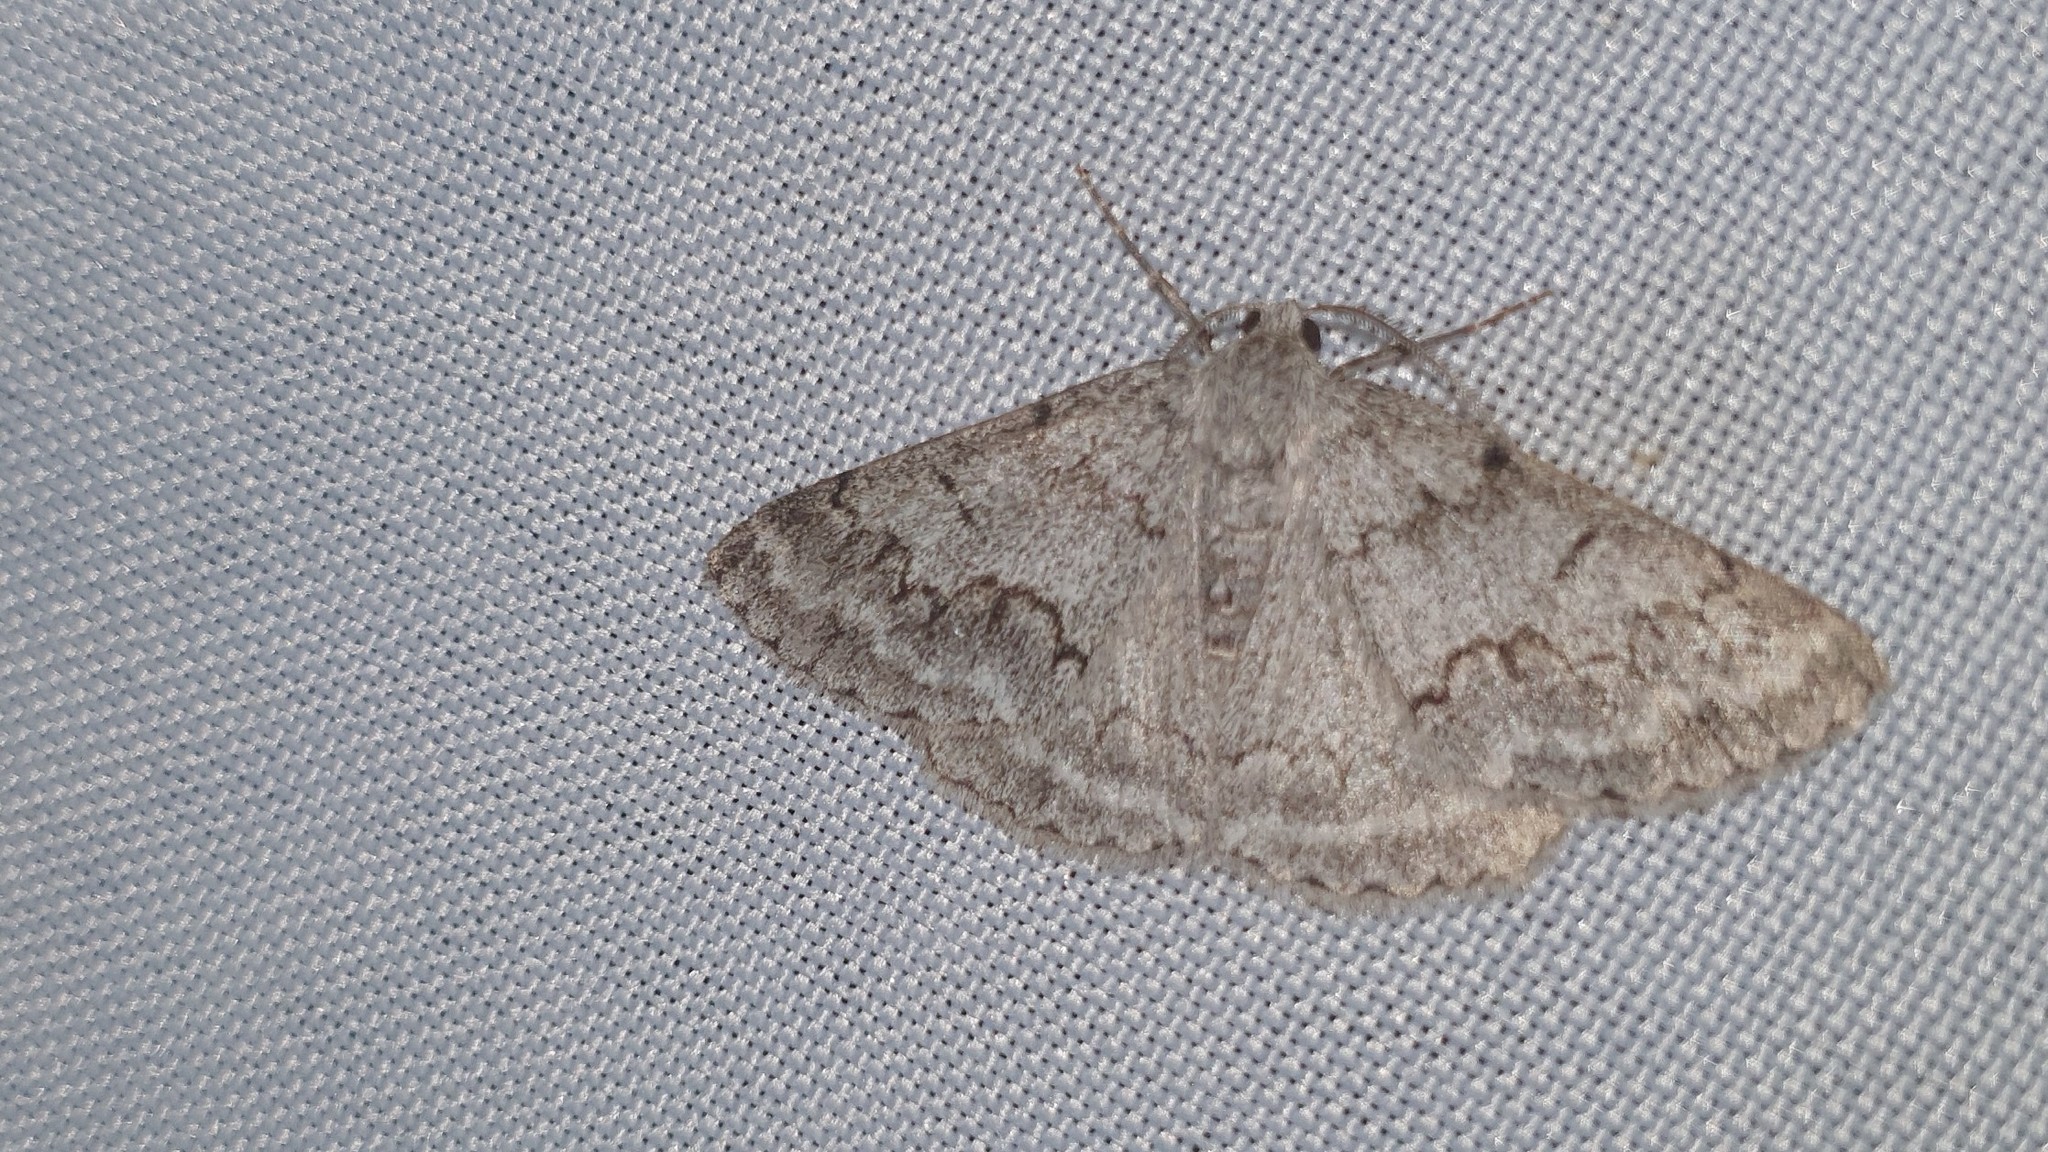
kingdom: Animalia
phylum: Arthropoda
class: Insecta
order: Lepidoptera
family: Geometridae
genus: Pseudoterpna
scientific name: Pseudoterpna coronillaria
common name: Jersey emerald
